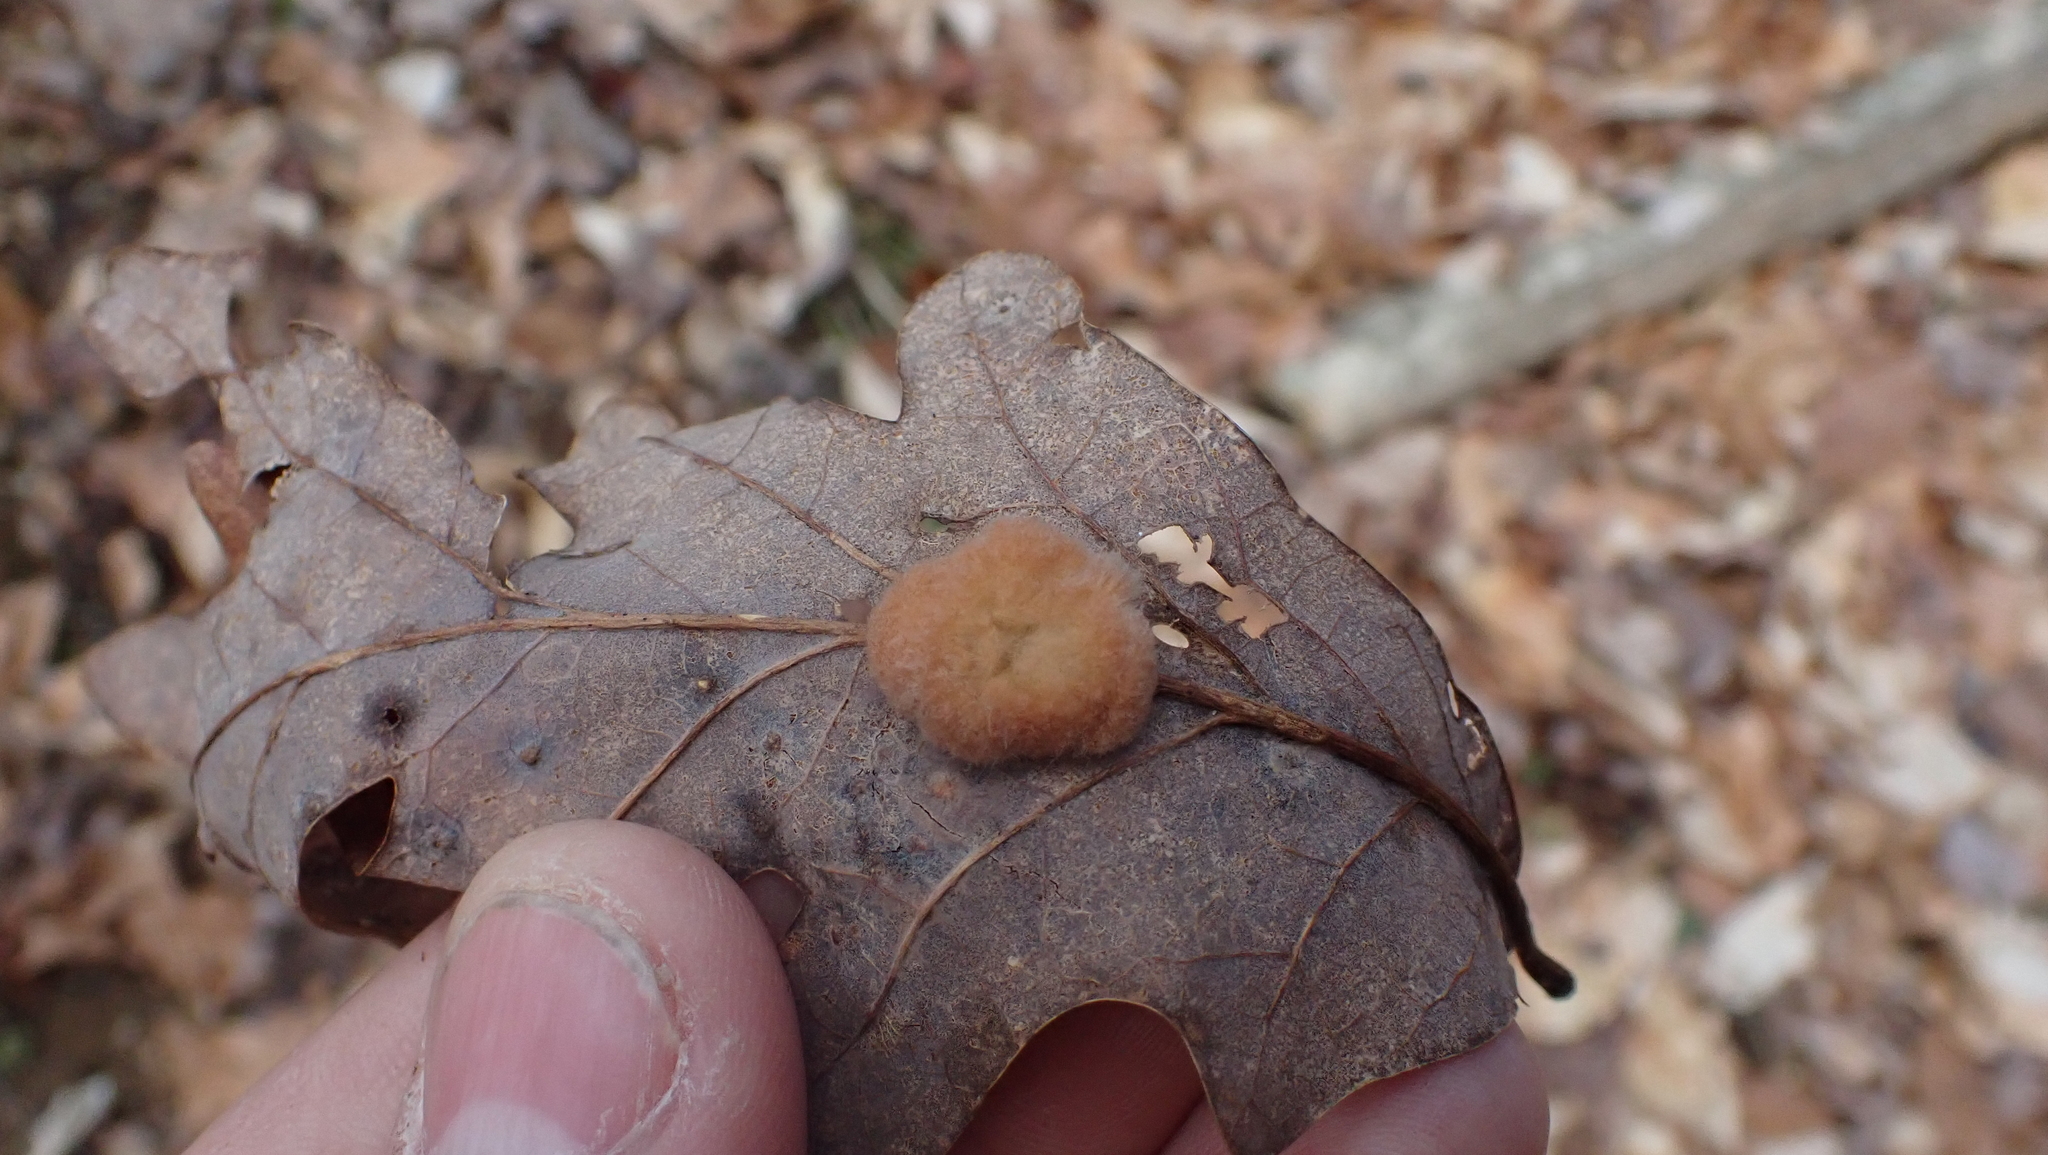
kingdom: Animalia
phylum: Arthropoda
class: Insecta
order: Hymenoptera
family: Cynipidae
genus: Andricus
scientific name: Andricus quercusflocci
